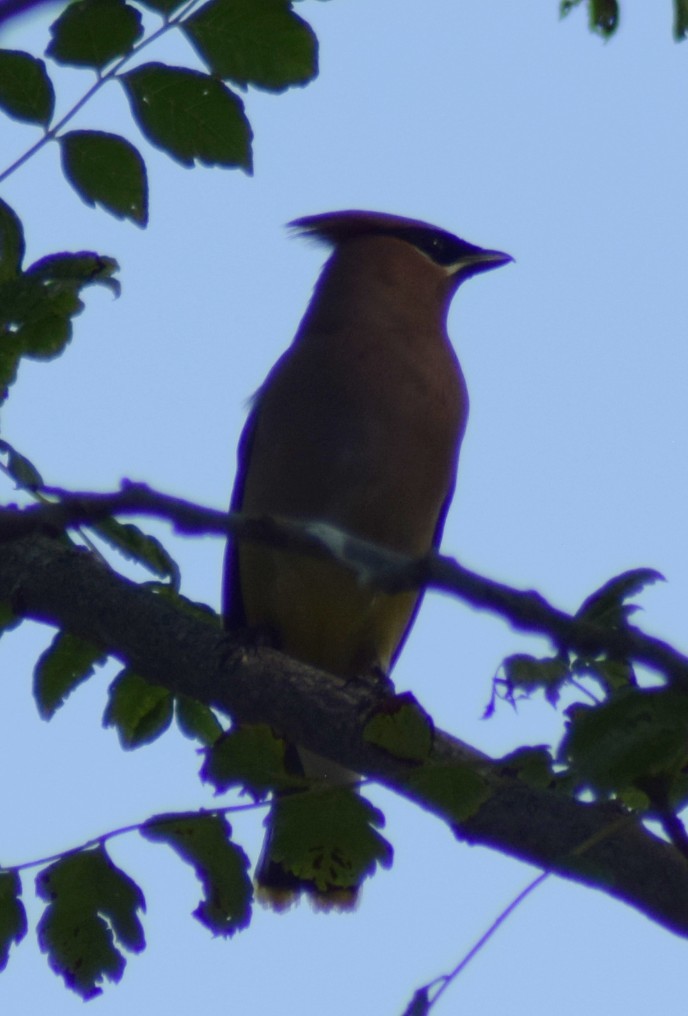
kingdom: Animalia
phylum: Chordata
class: Aves
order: Passeriformes
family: Bombycillidae
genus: Bombycilla
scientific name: Bombycilla cedrorum
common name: Cedar waxwing
